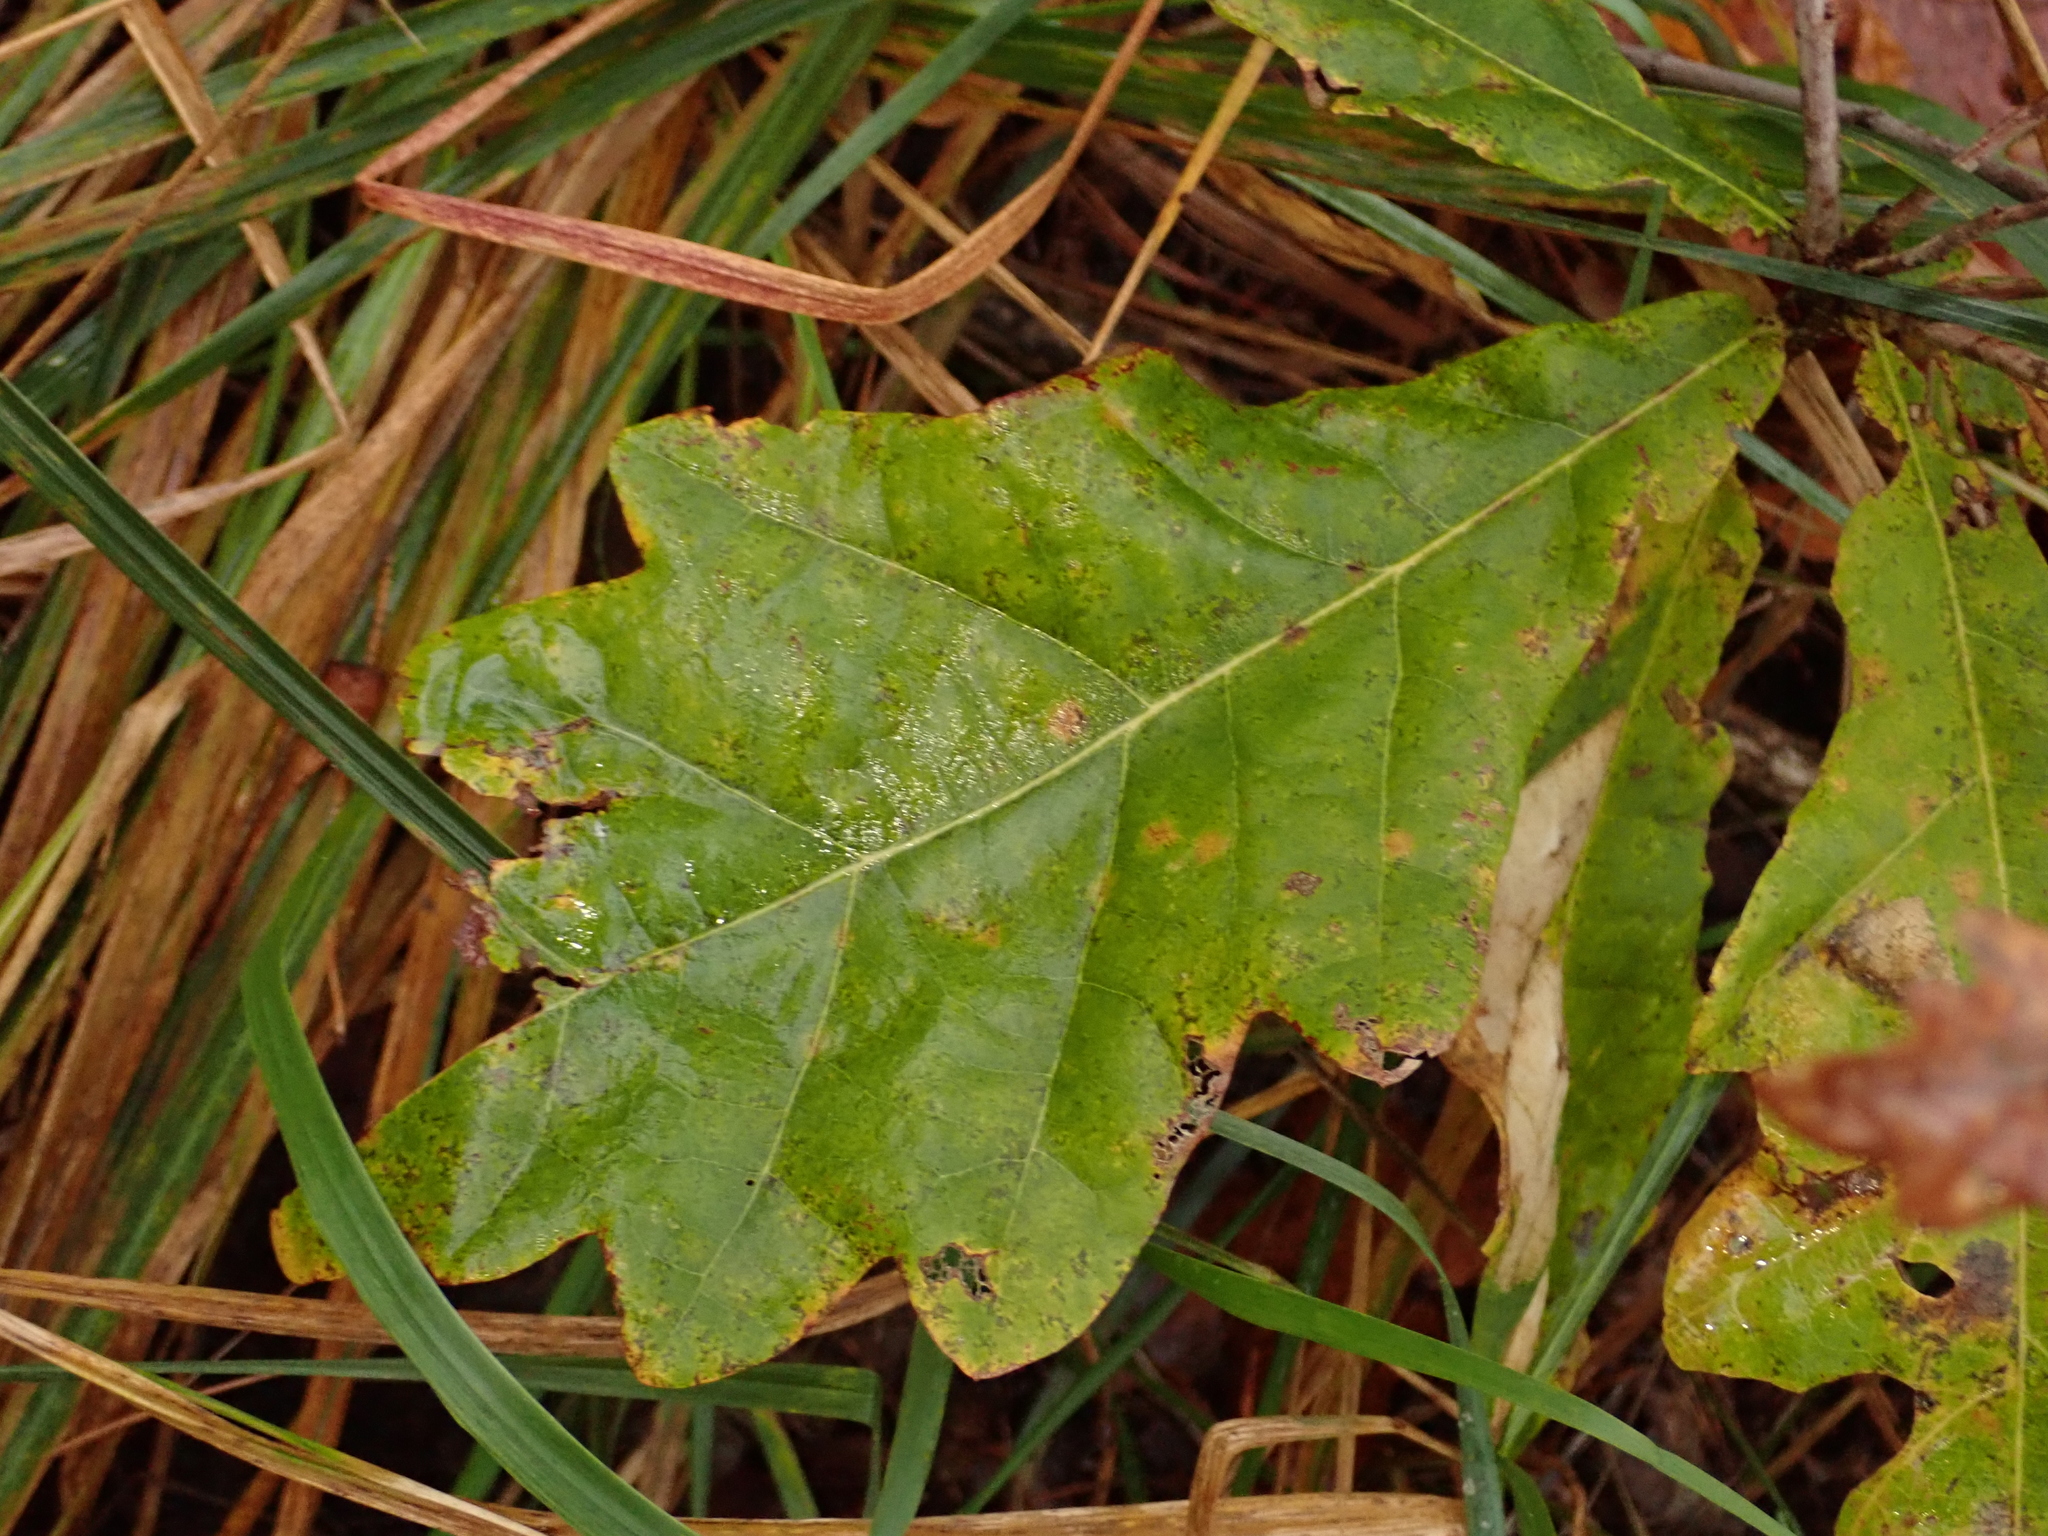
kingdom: Plantae
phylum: Tracheophyta
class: Magnoliopsida
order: Fagales
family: Fagaceae
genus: Quercus
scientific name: Quercus robur
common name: Pedunculate oak
